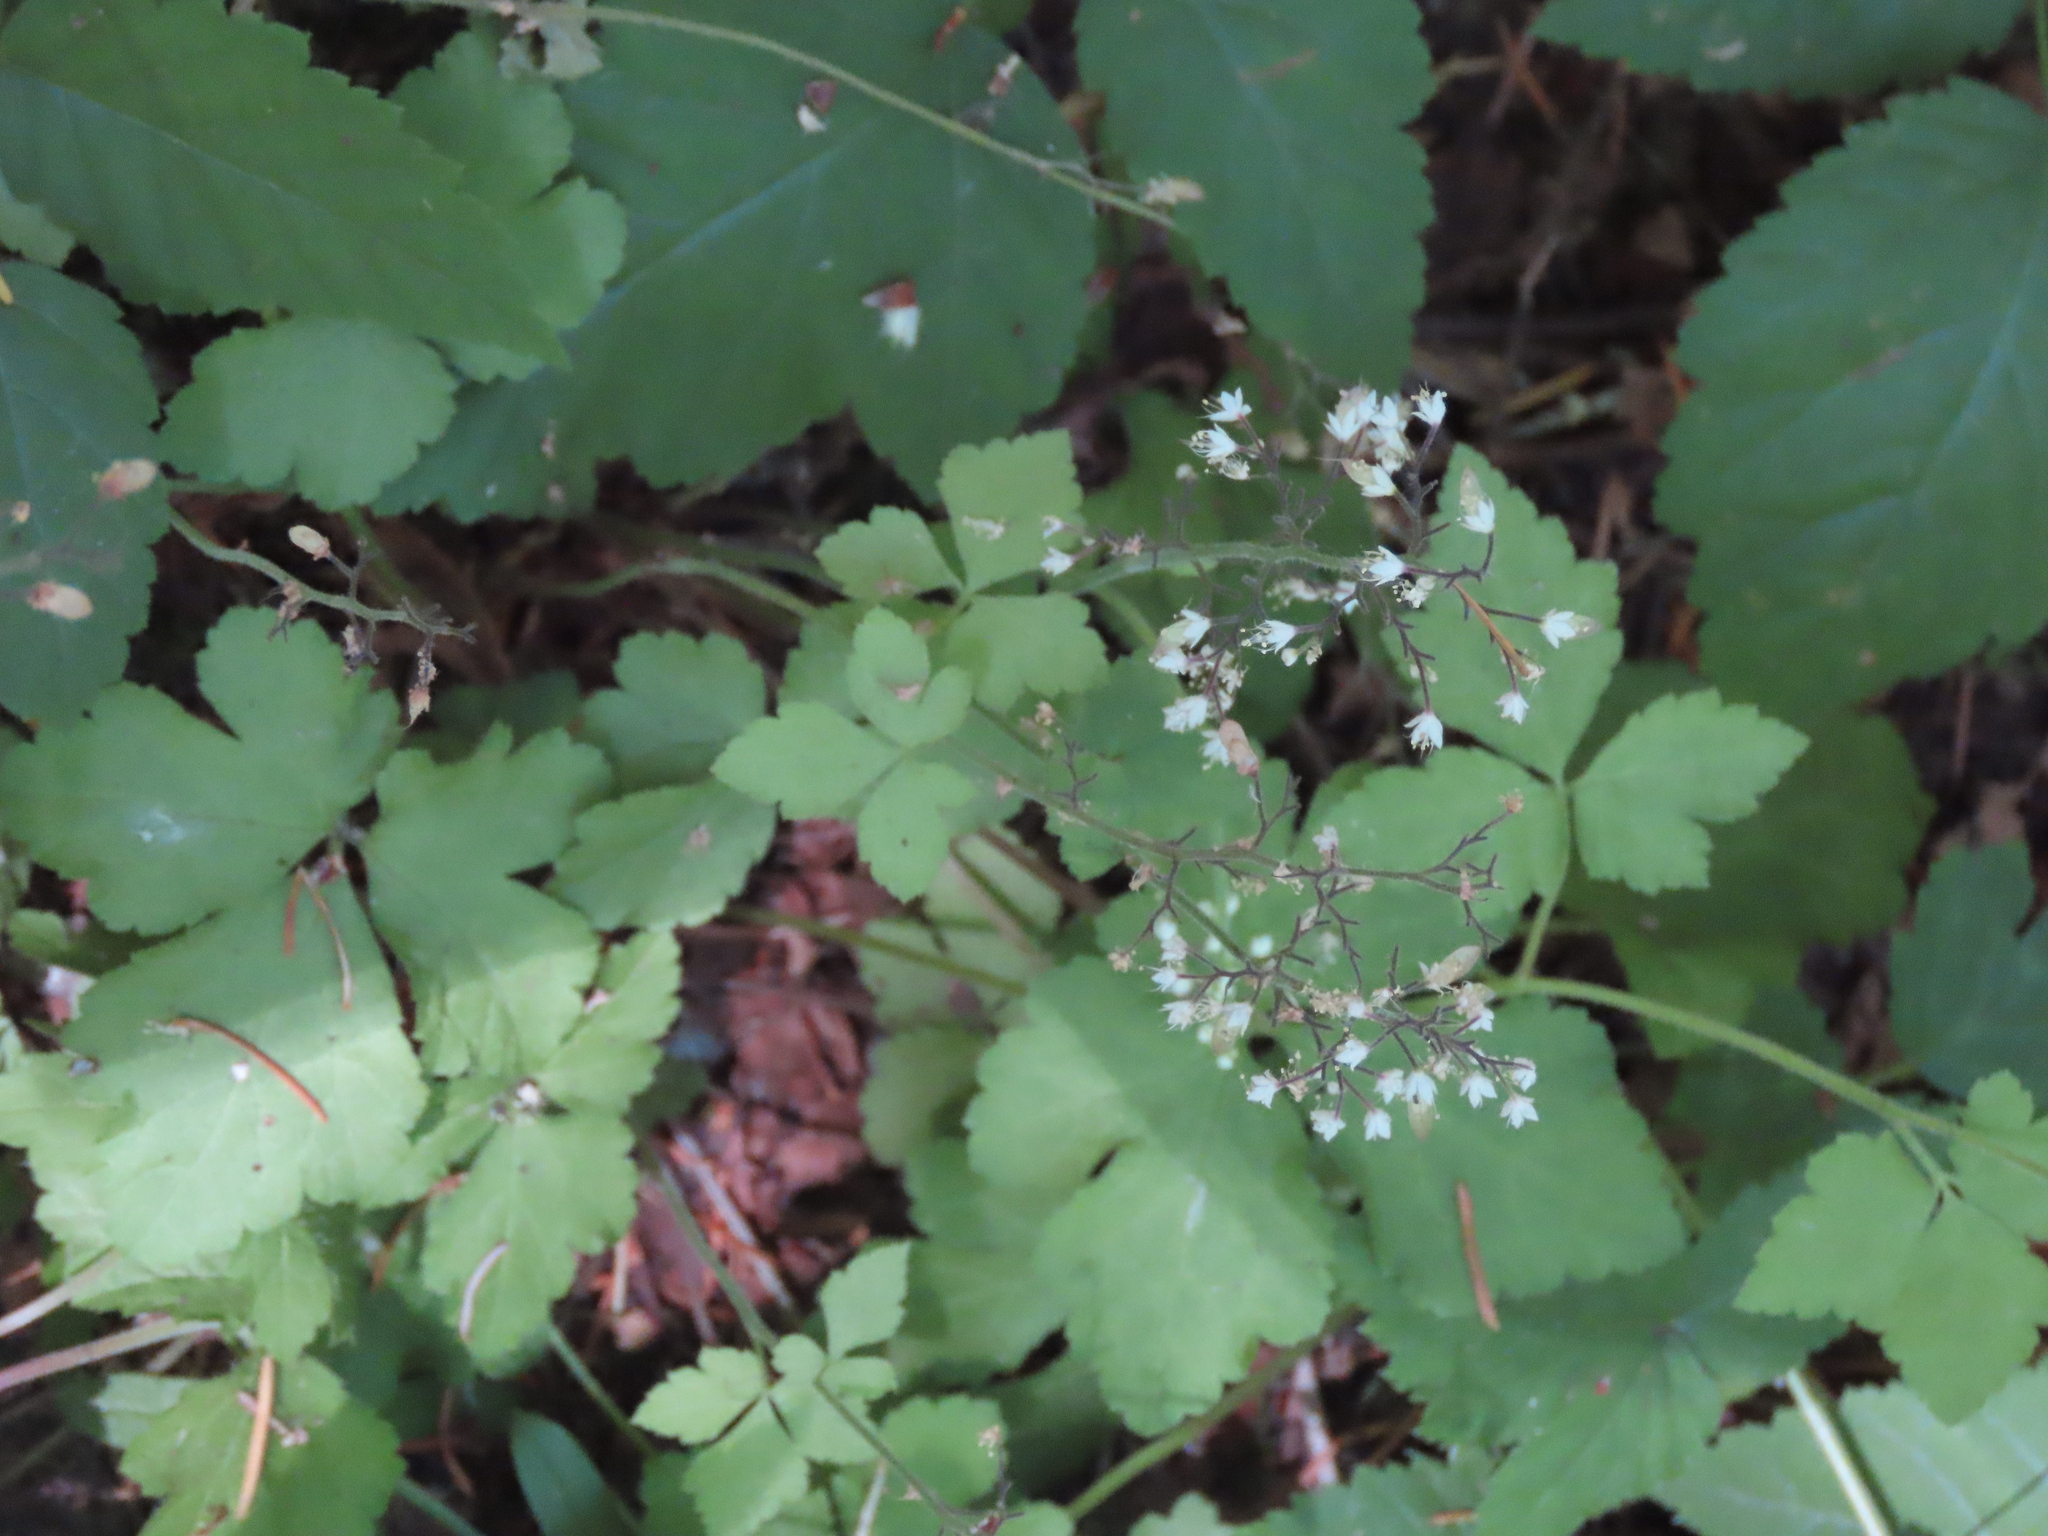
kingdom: Plantae
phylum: Tracheophyta
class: Magnoliopsida
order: Saxifragales
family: Saxifragaceae
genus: Tiarella
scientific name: Tiarella trifoliata
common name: Sugar-scoop
